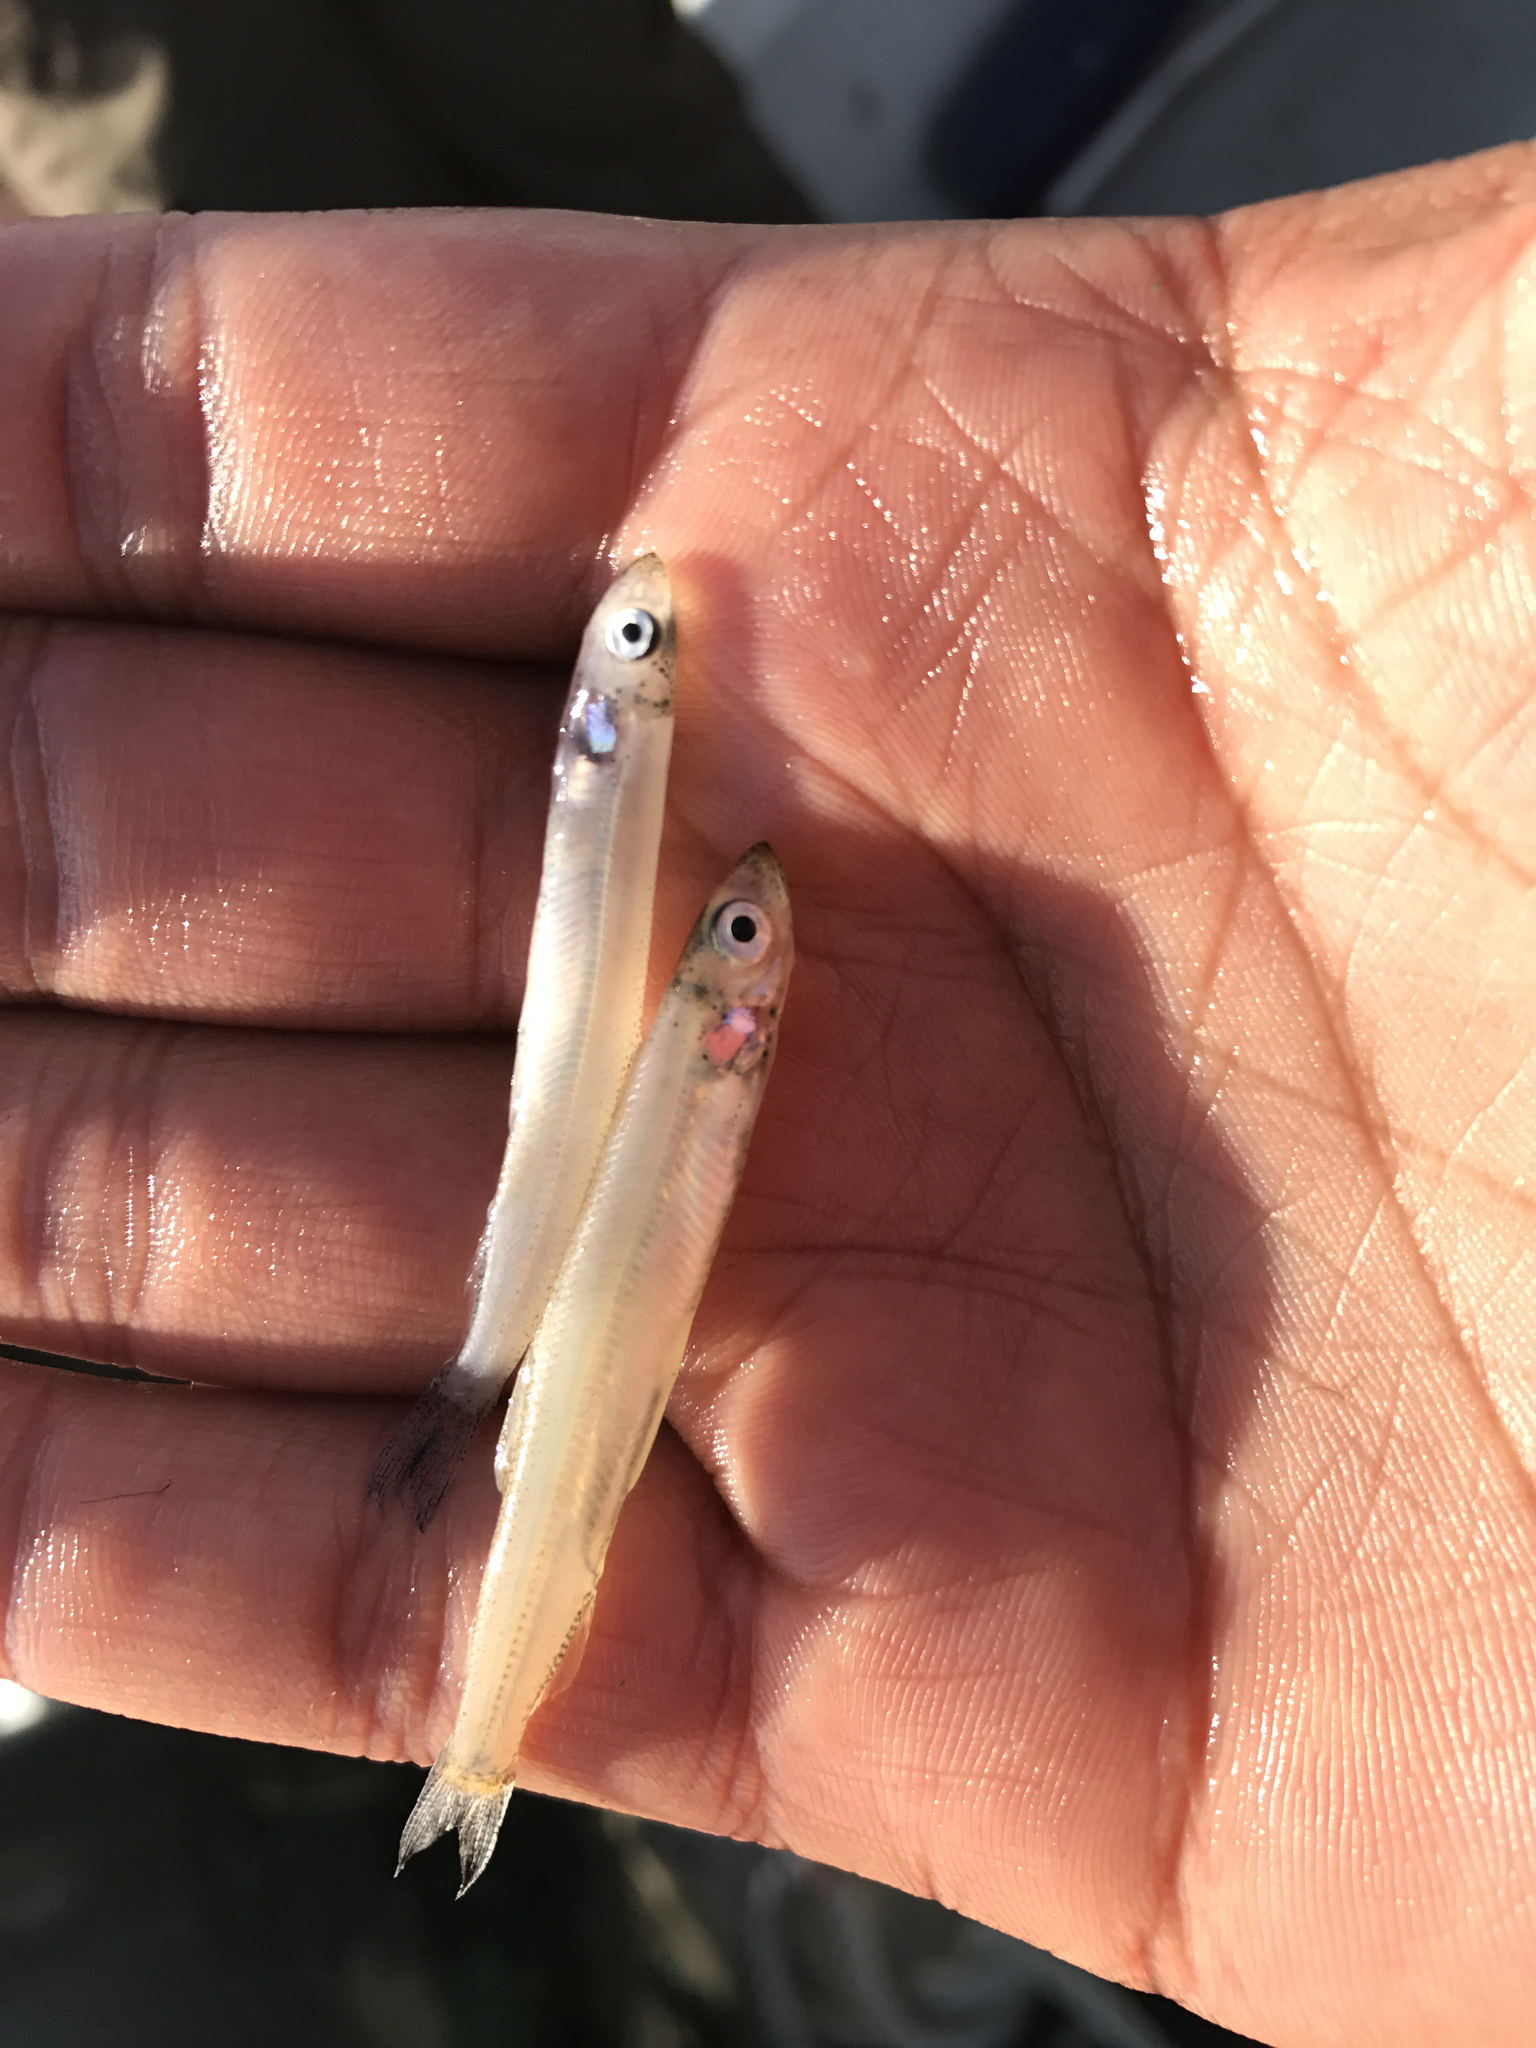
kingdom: Animalia
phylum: Chordata
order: Osmeriformes
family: Osmeridae
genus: Osmerus
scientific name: Osmerus mordax
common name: Rainbow smelt
